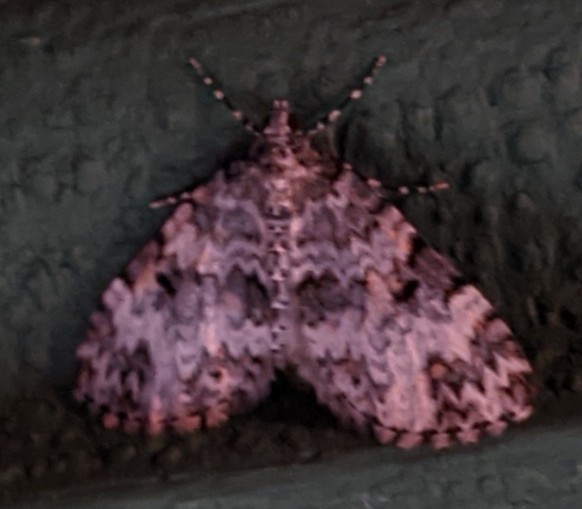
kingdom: Animalia
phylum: Arthropoda
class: Insecta
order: Lepidoptera
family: Geometridae
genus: Spargania
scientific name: Spargania magnoliata
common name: Double-banded carpet
